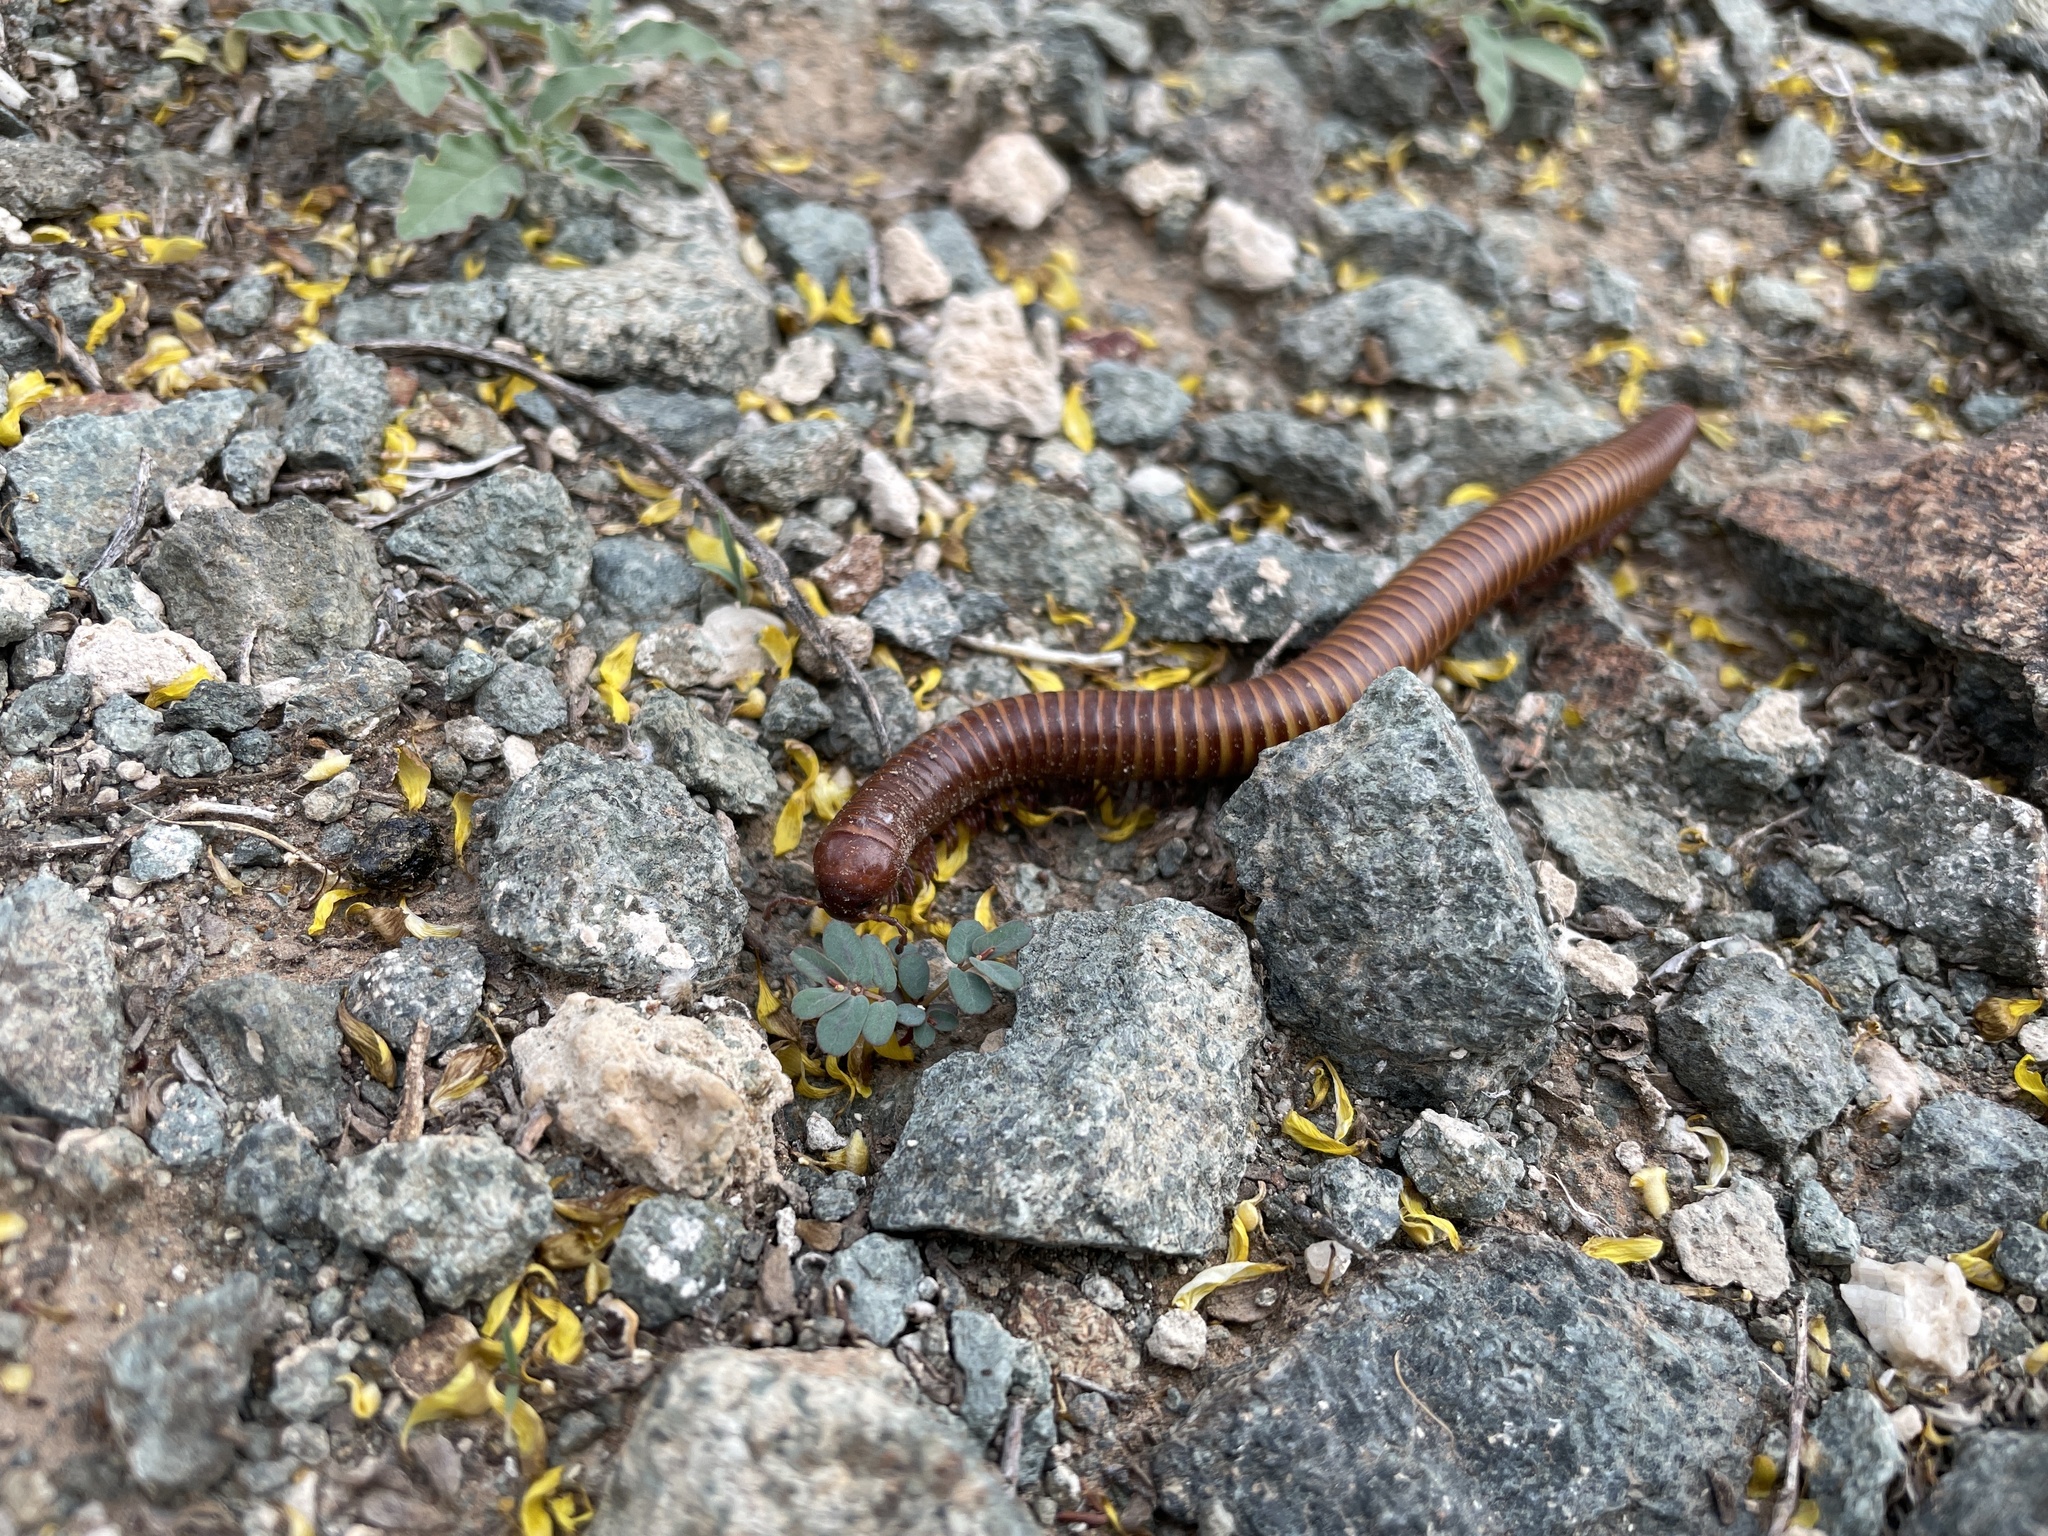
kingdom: Animalia
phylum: Arthropoda
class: Diplopoda
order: Spirostreptida
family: Spirostreptidae
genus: Orthoporus
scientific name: Orthoporus ornatus
